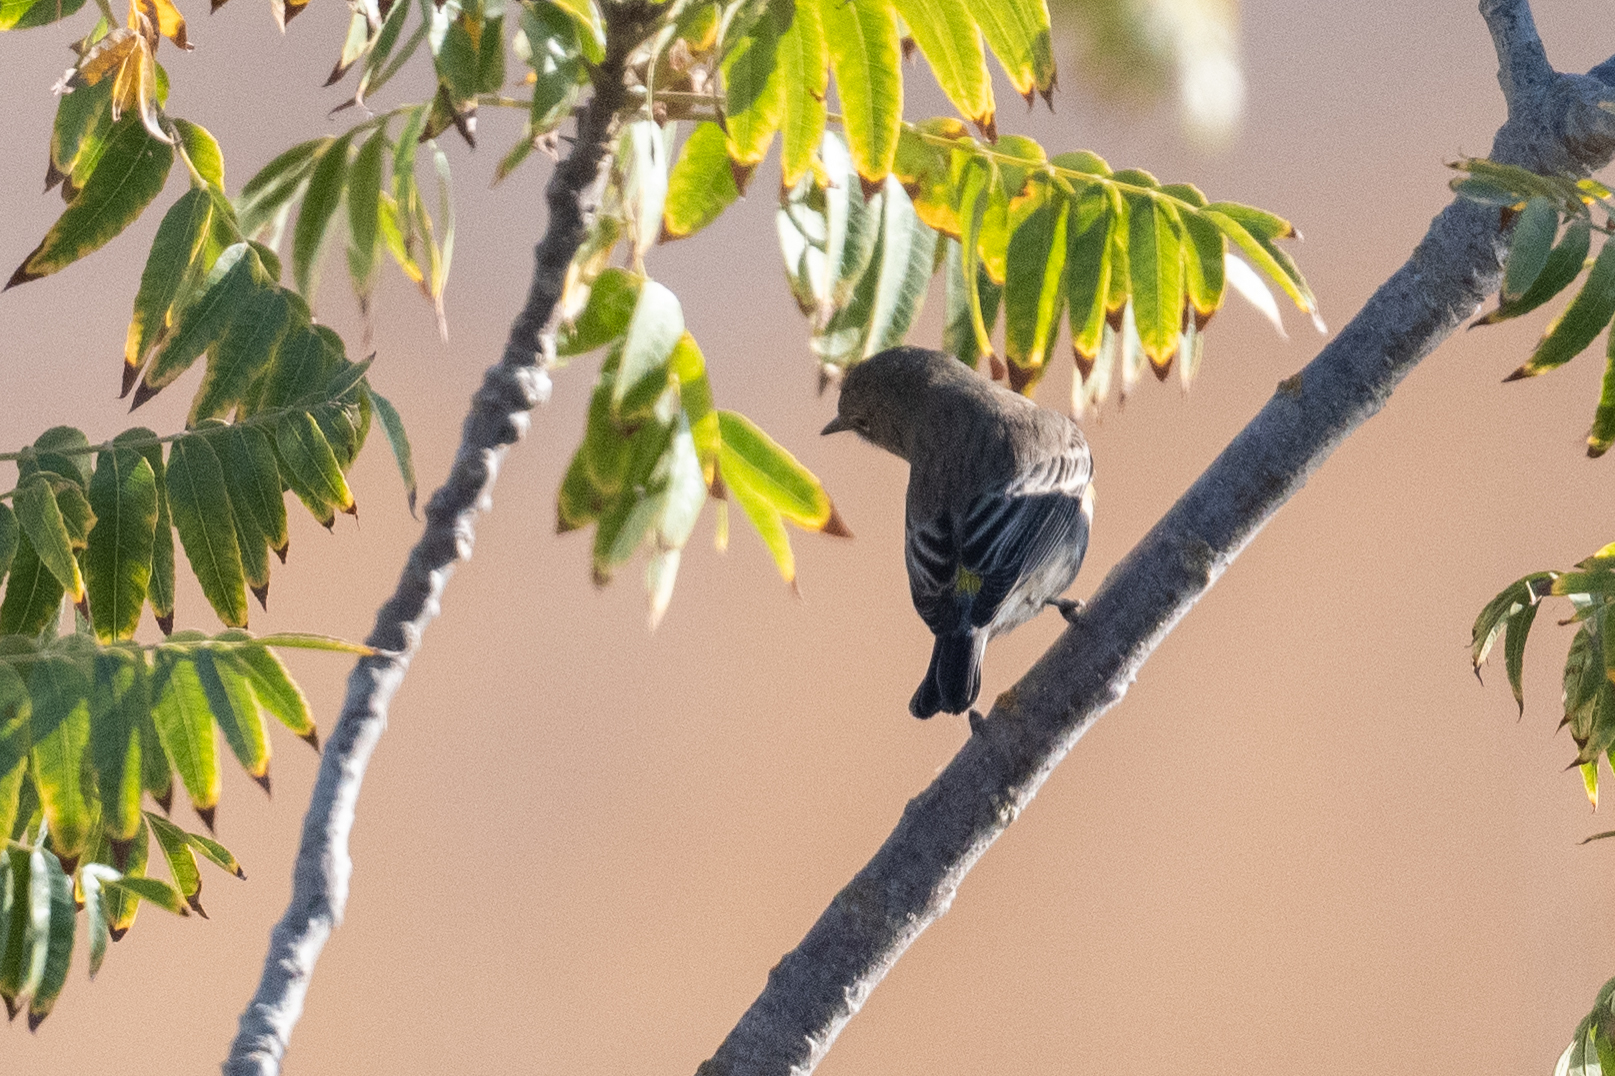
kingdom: Animalia
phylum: Chordata
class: Aves
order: Passeriformes
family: Parulidae
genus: Setophaga
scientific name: Setophaga coronata
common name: Myrtle warbler
